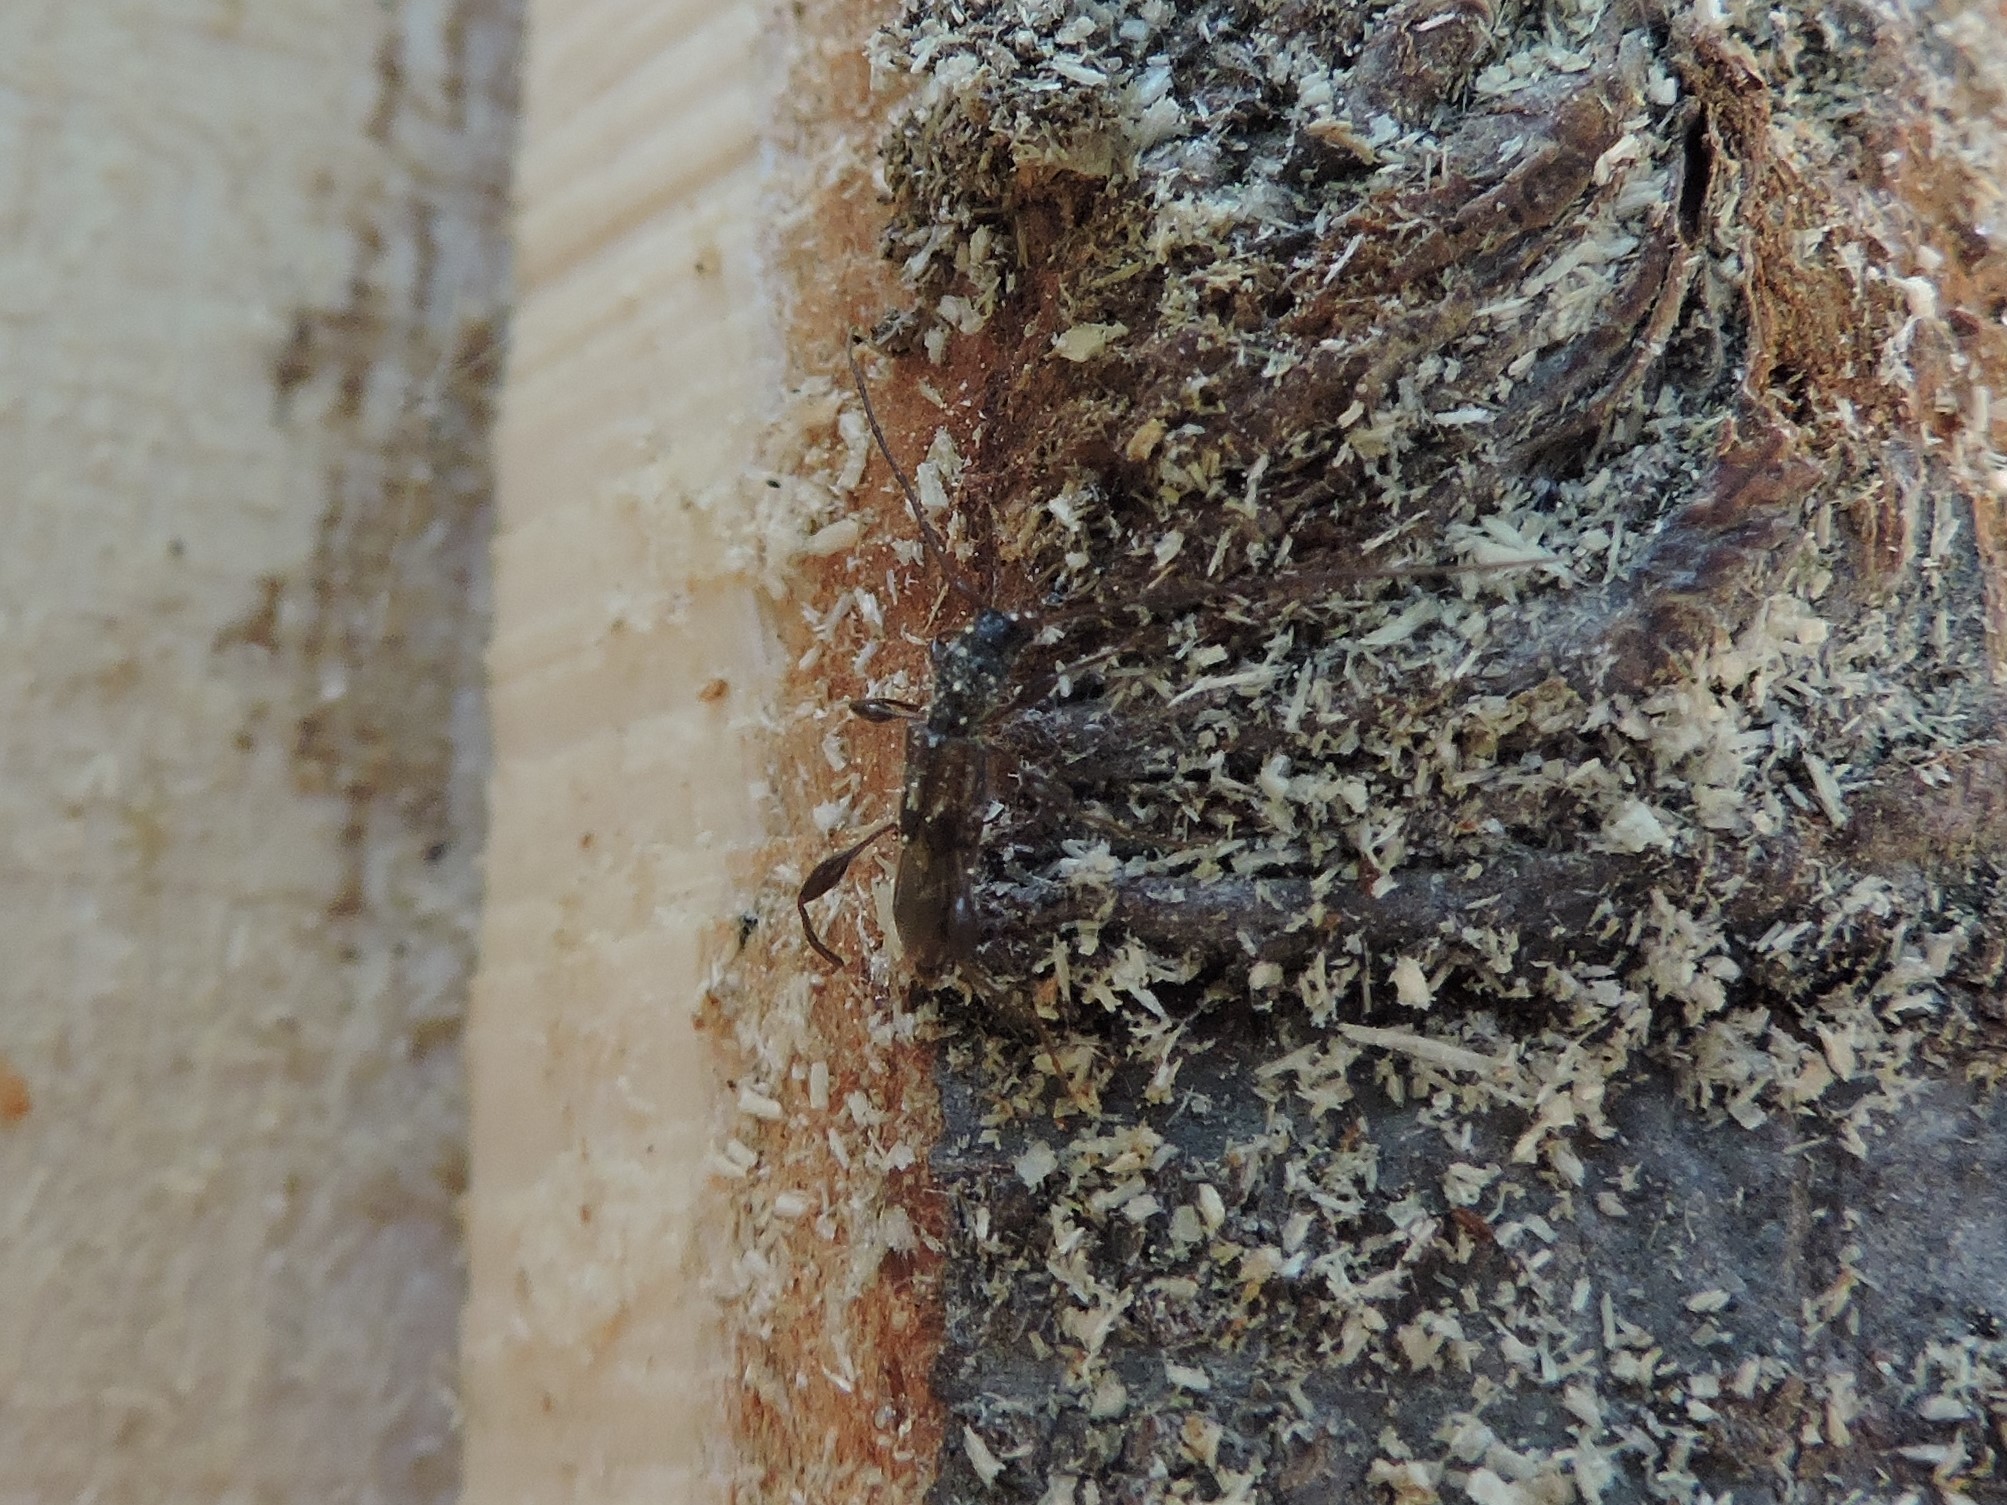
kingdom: Animalia
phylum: Arthropoda
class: Insecta
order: Coleoptera
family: Cerambycidae
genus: Molorchus
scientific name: Molorchus minor
